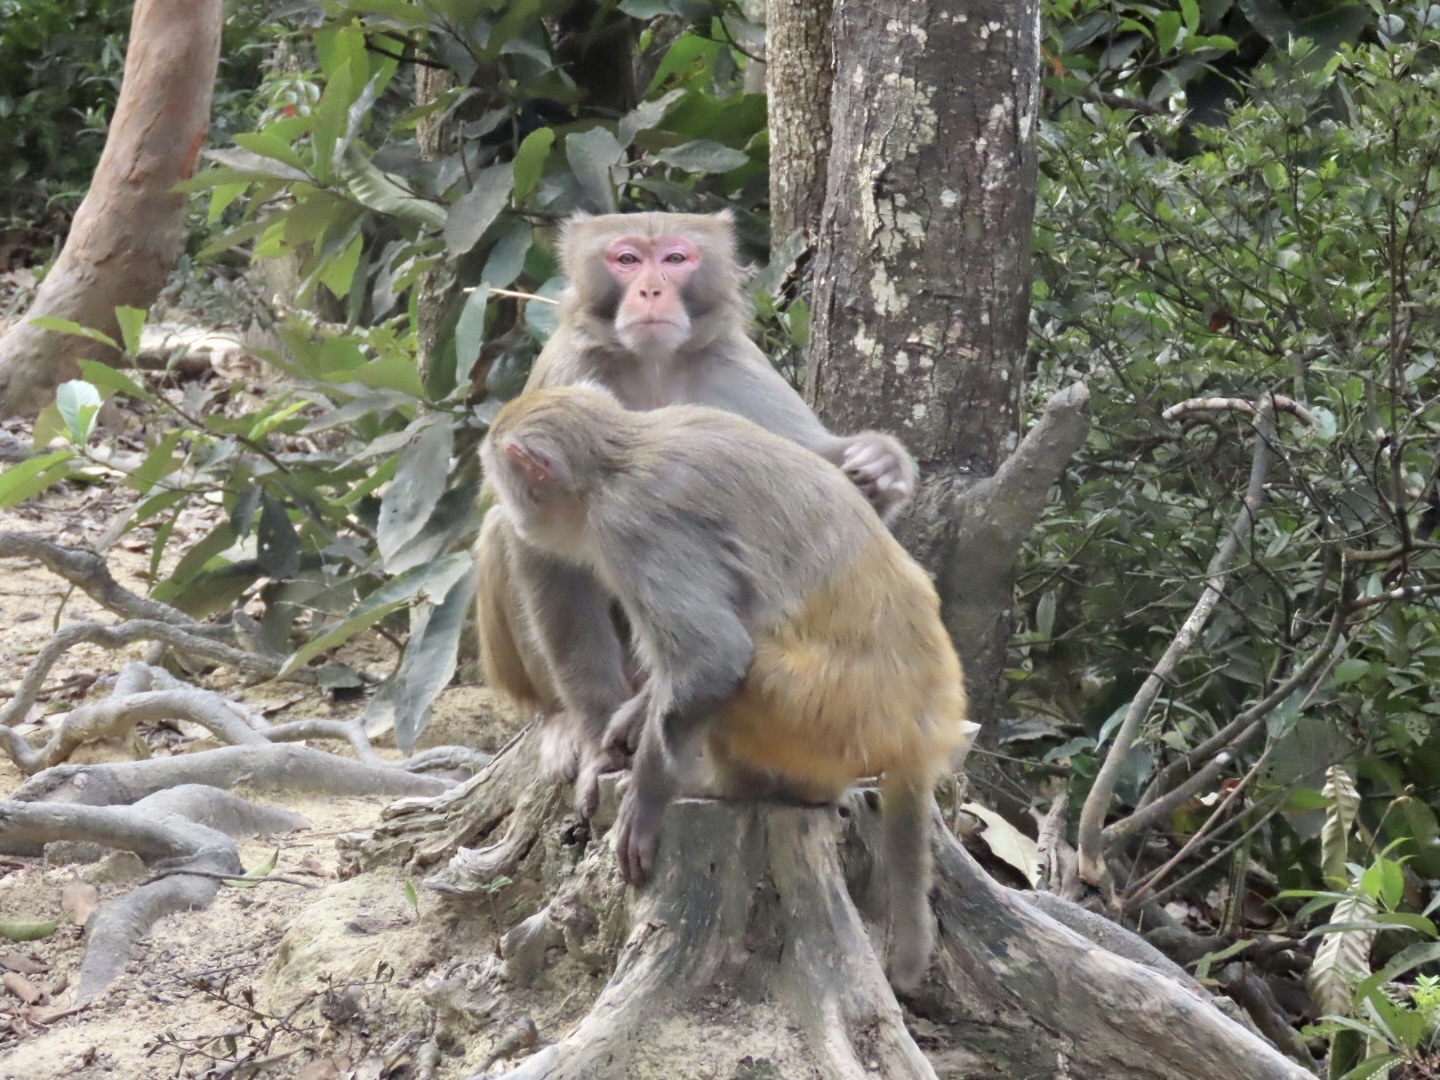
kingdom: Animalia
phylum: Chordata
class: Mammalia
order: Primates
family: Cercopithecidae
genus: Macaca
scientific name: Macaca mulatta
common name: Rhesus monkey
